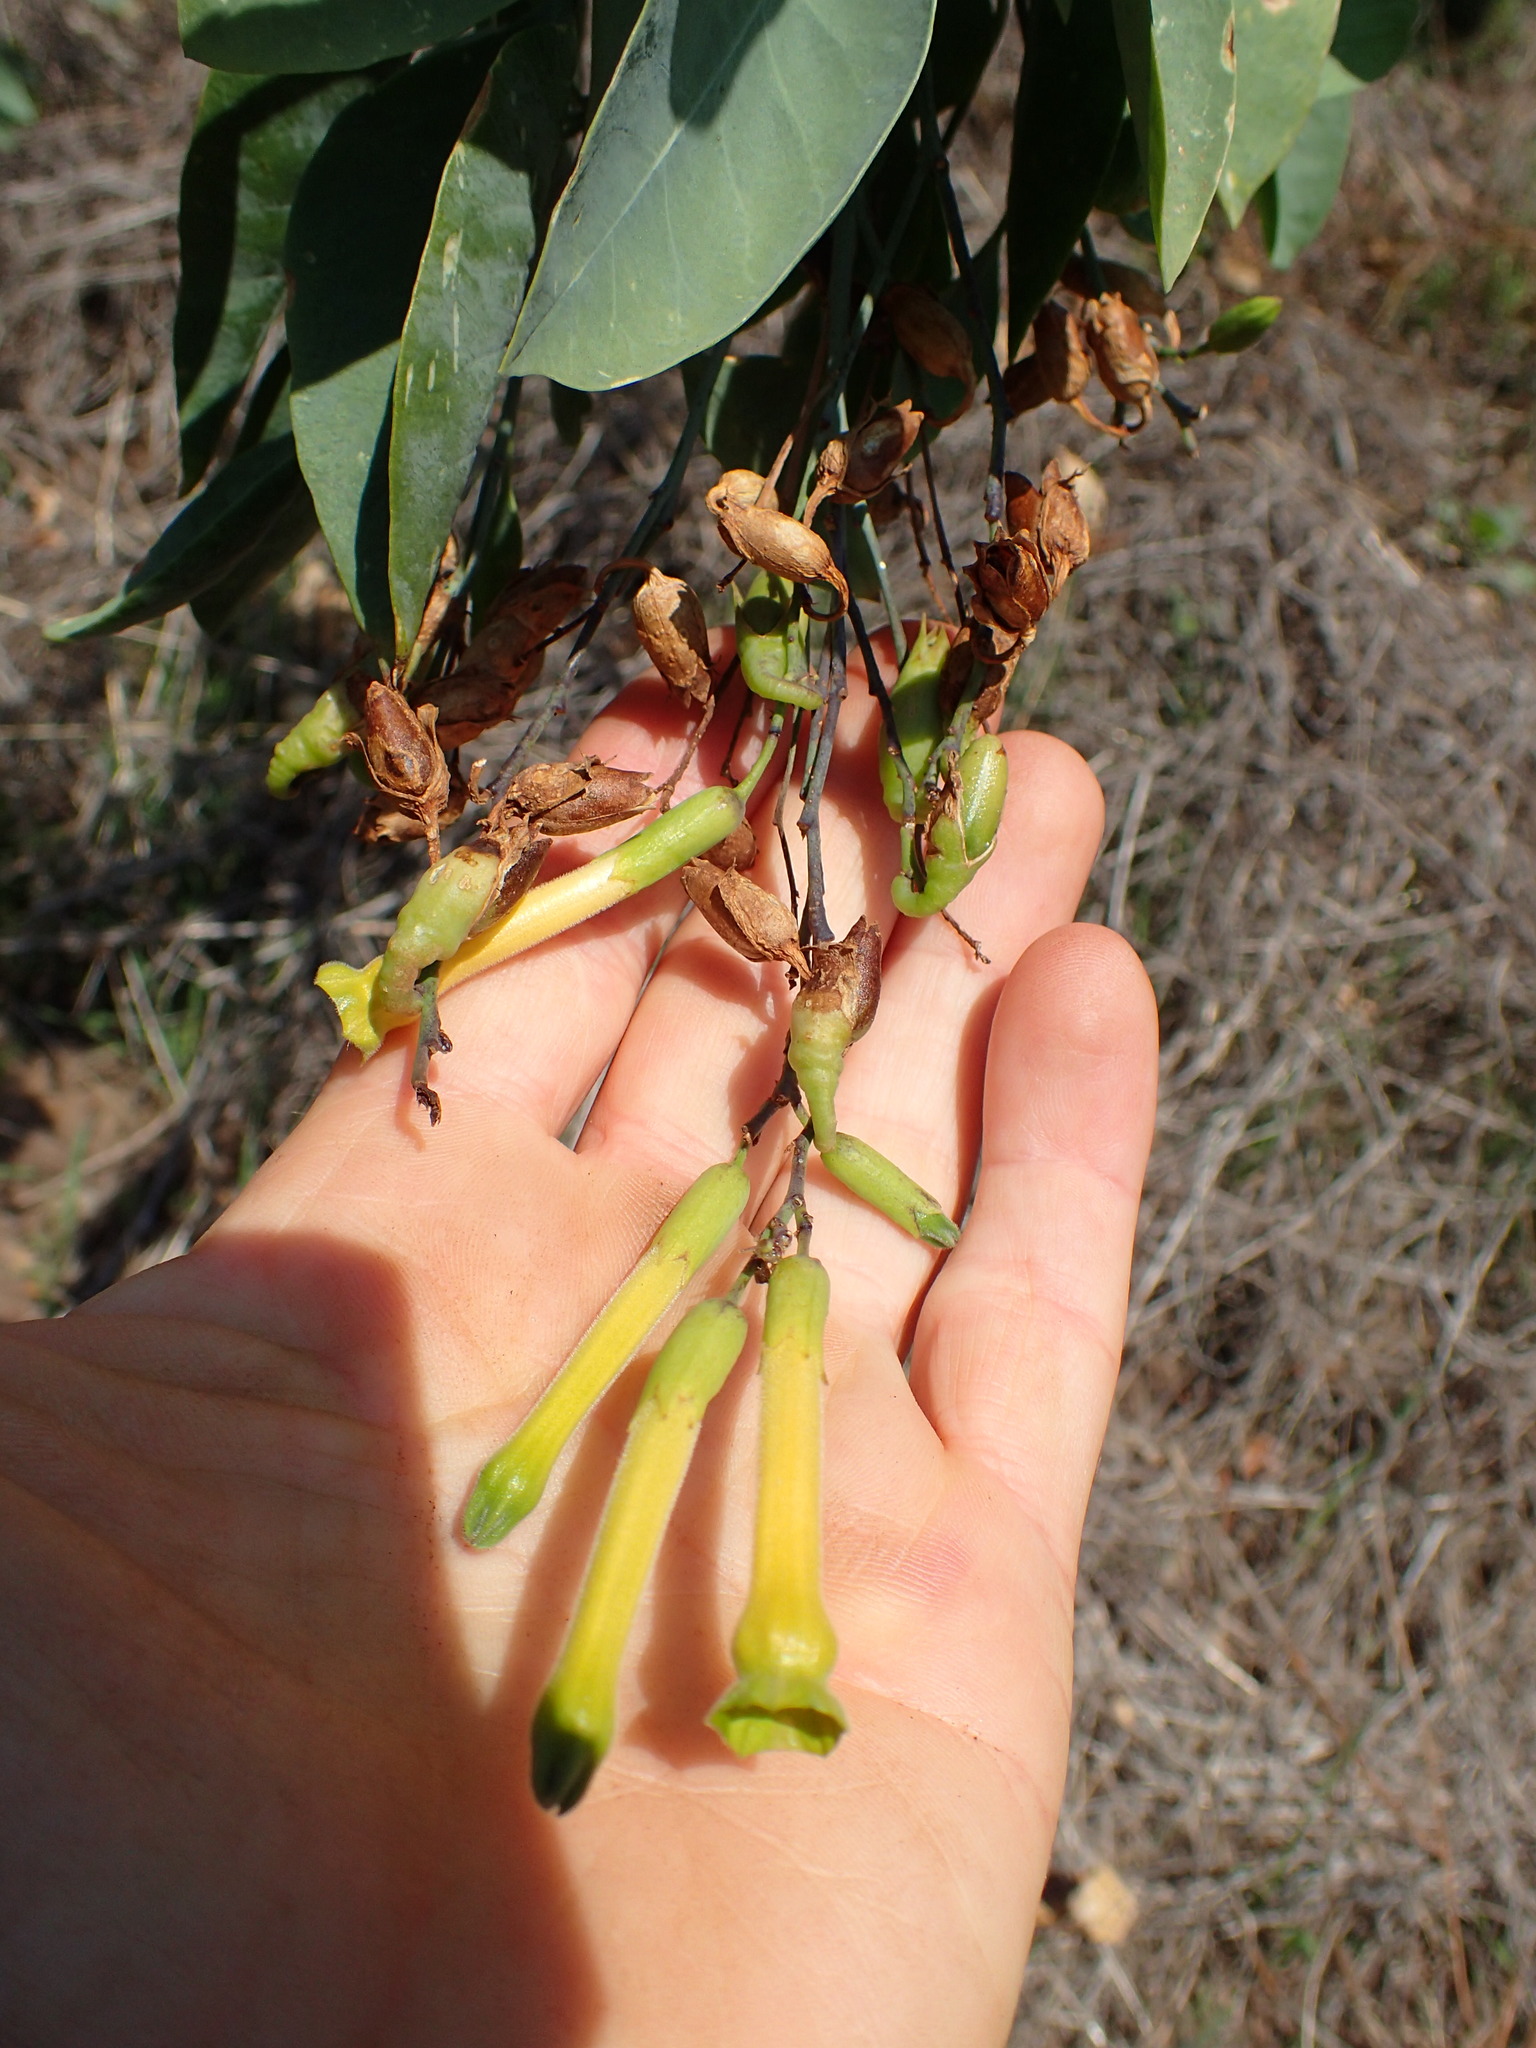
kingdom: Plantae
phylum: Tracheophyta
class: Magnoliopsida
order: Solanales
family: Solanaceae
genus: Nicotiana
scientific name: Nicotiana glauca
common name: Tree tobacco
